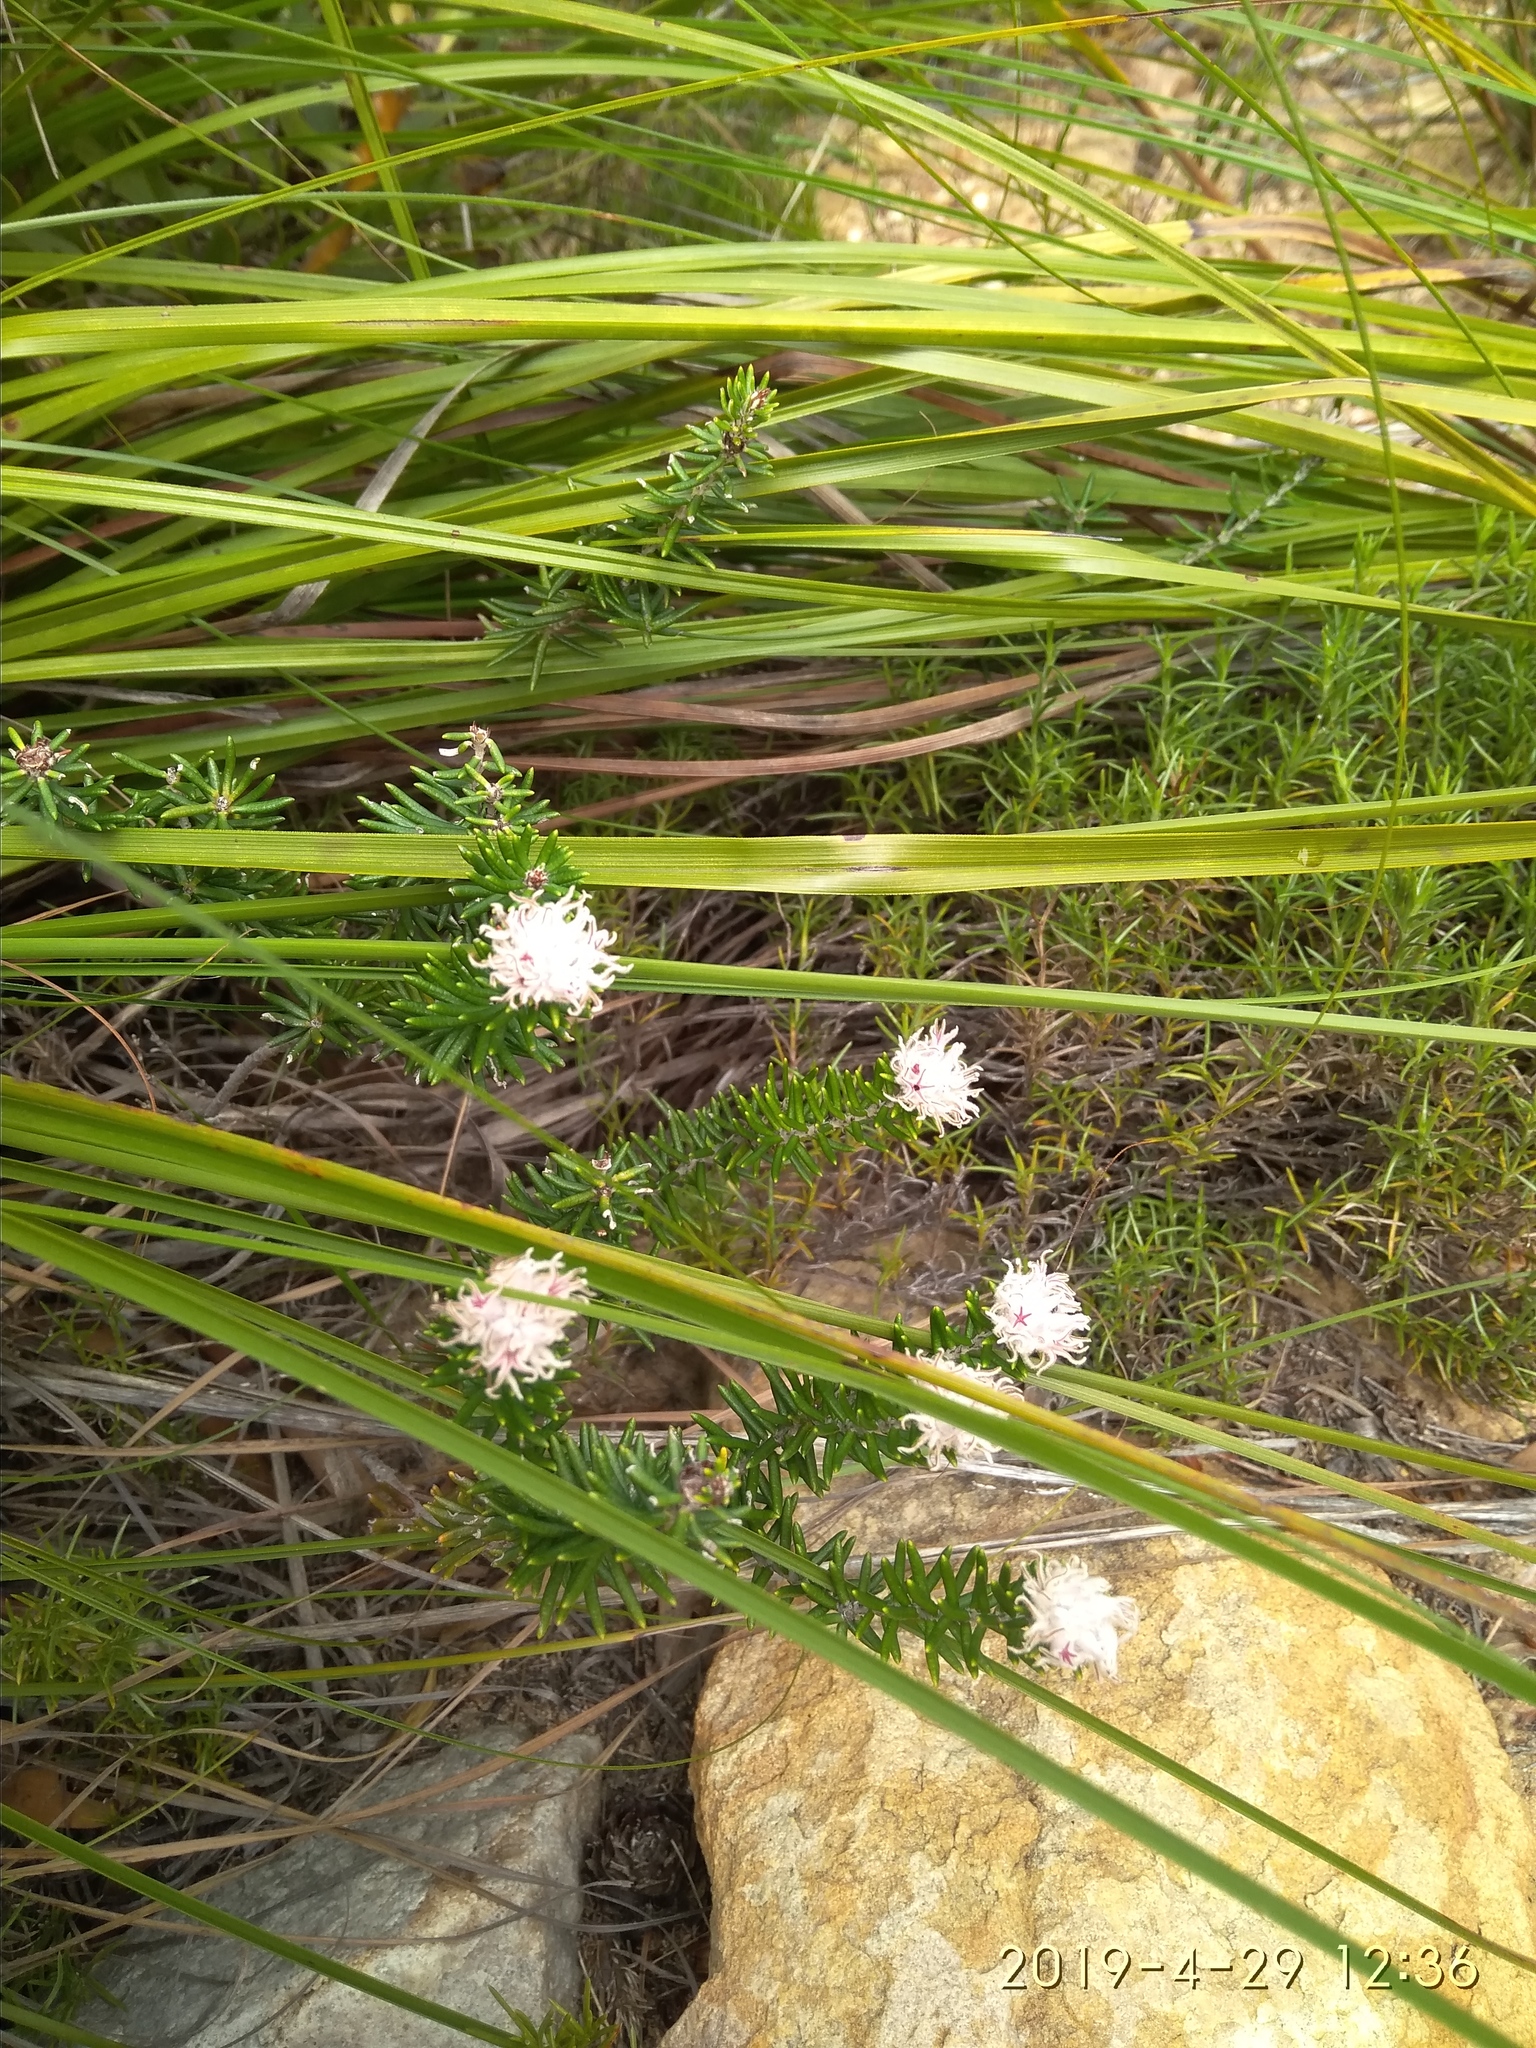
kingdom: Plantae
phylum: Tracheophyta
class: Magnoliopsida
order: Rosales
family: Rhamnaceae
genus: Trichocephalus
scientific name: Trichocephalus stipularis
